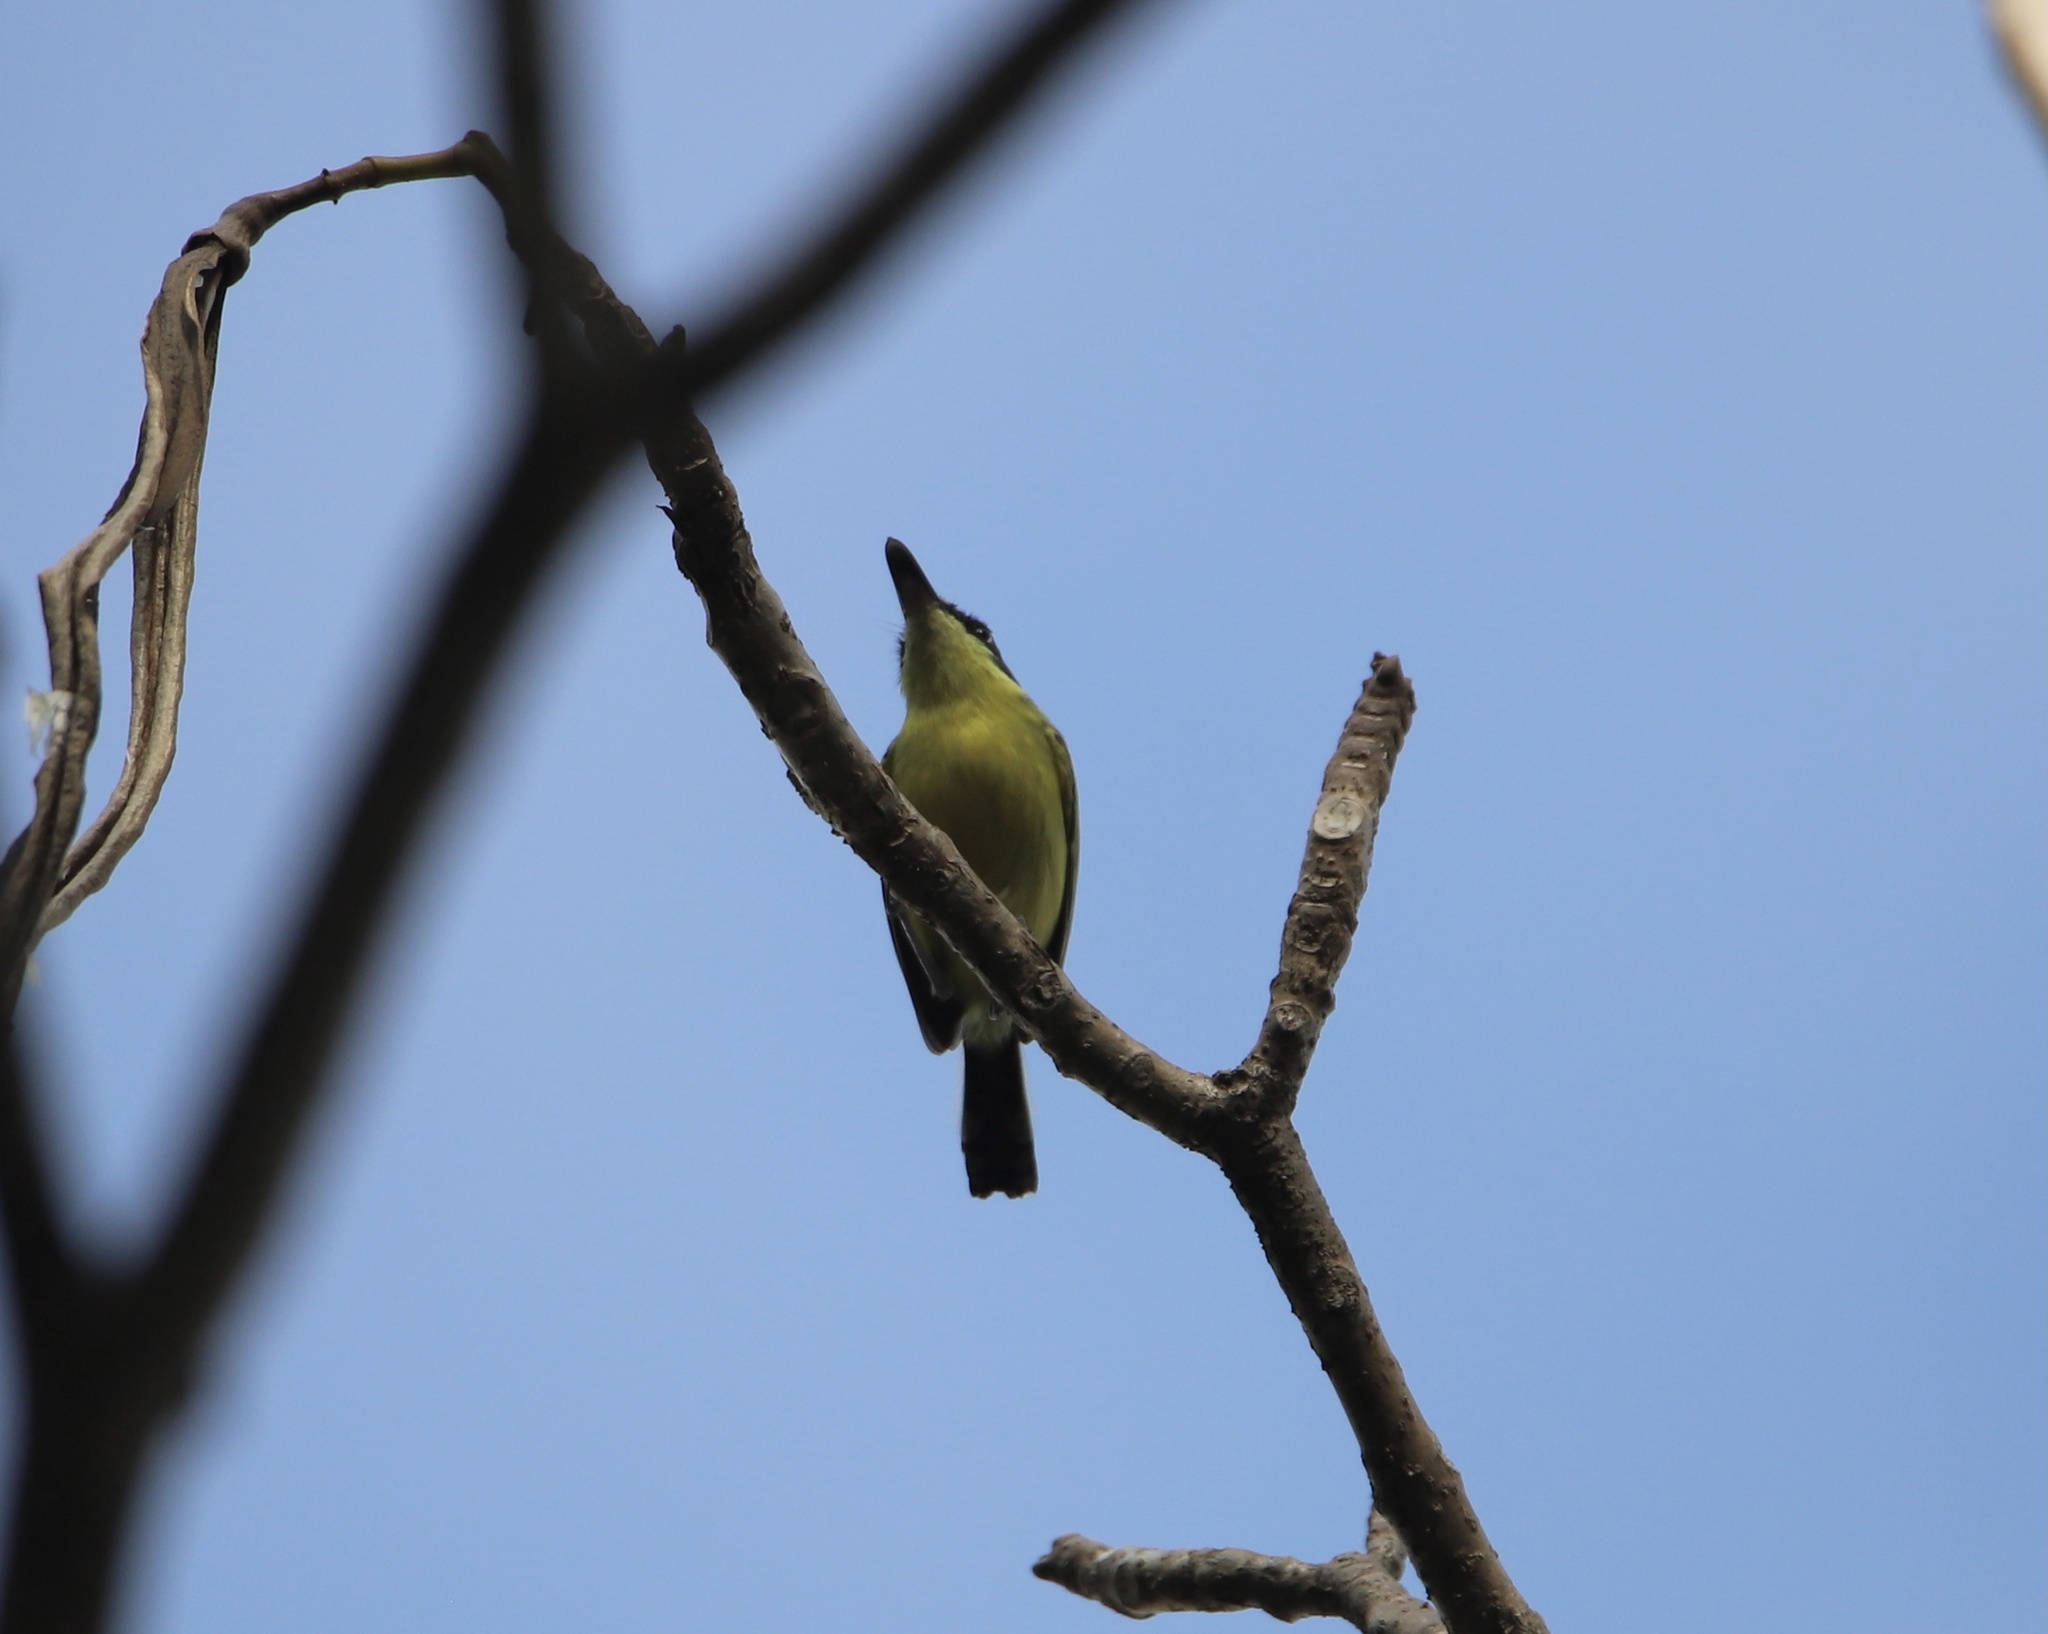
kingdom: Animalia
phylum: Chordata
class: Aves
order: Passeriformes
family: Tyrannidae
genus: Todirostrum
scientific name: Todirostrum cinereum
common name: Common tody-flycatcher
